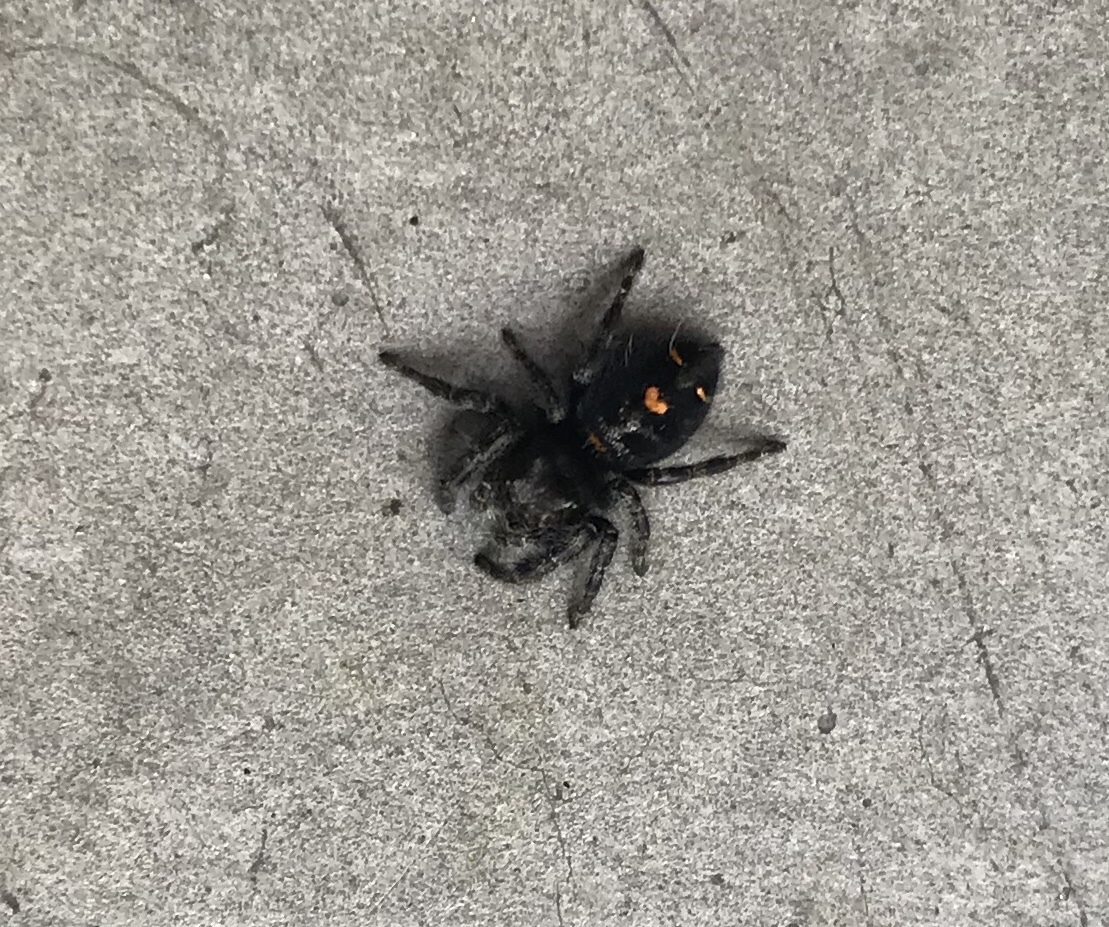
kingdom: Animalia
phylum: Arthropoda
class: Arachnida
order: Araneae
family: Salticidae
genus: Phidippus
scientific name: Phidippus audax
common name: Bold jumper
